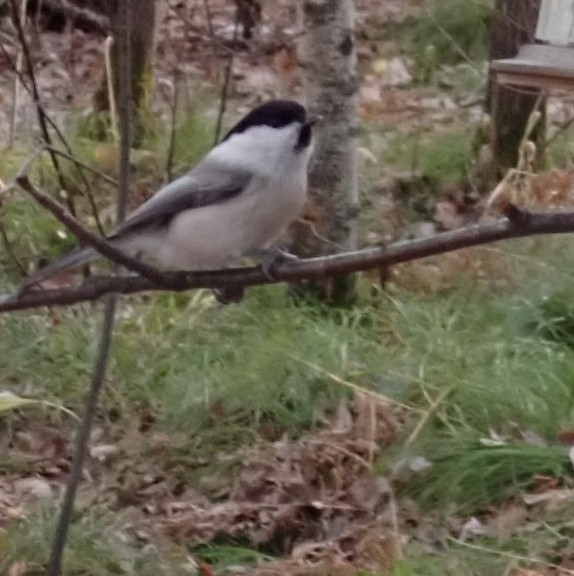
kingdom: Animalia
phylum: Chordata
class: Aves
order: Passeriformes
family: Paridae
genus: Poecile
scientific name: Poecile montanus
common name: Willow tit
